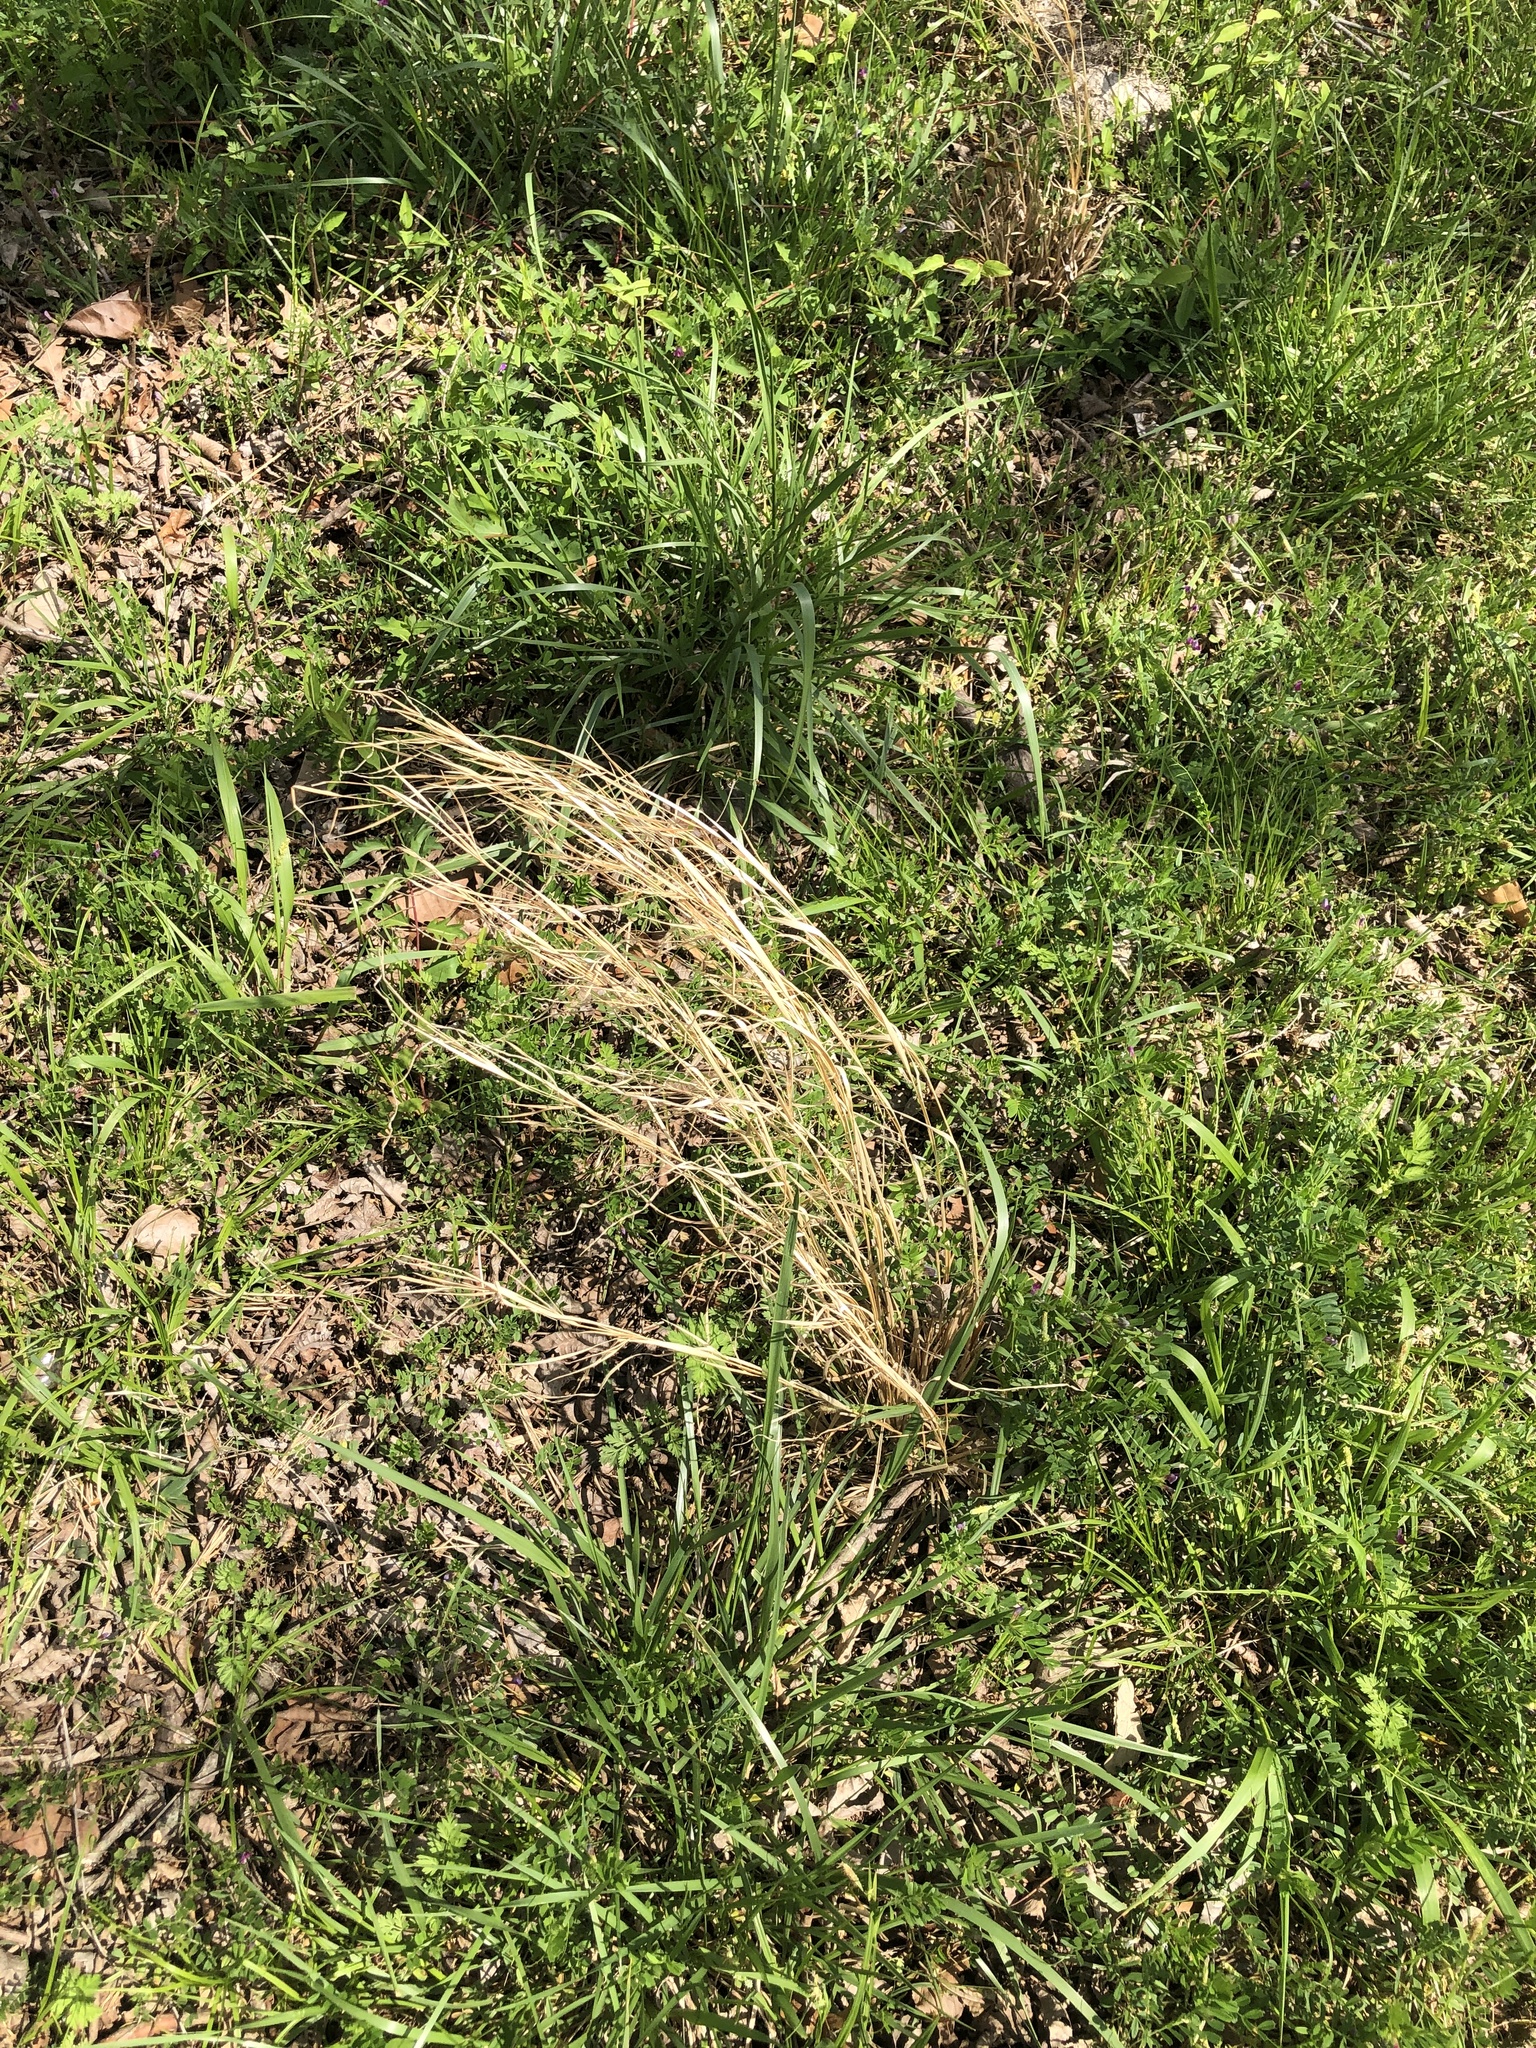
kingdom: Plantae
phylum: Tracheophyta
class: Liliopsida
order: Poales
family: Poaceae
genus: Andropogon
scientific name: Andropogon virginicus
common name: Broomsedge bluestem
